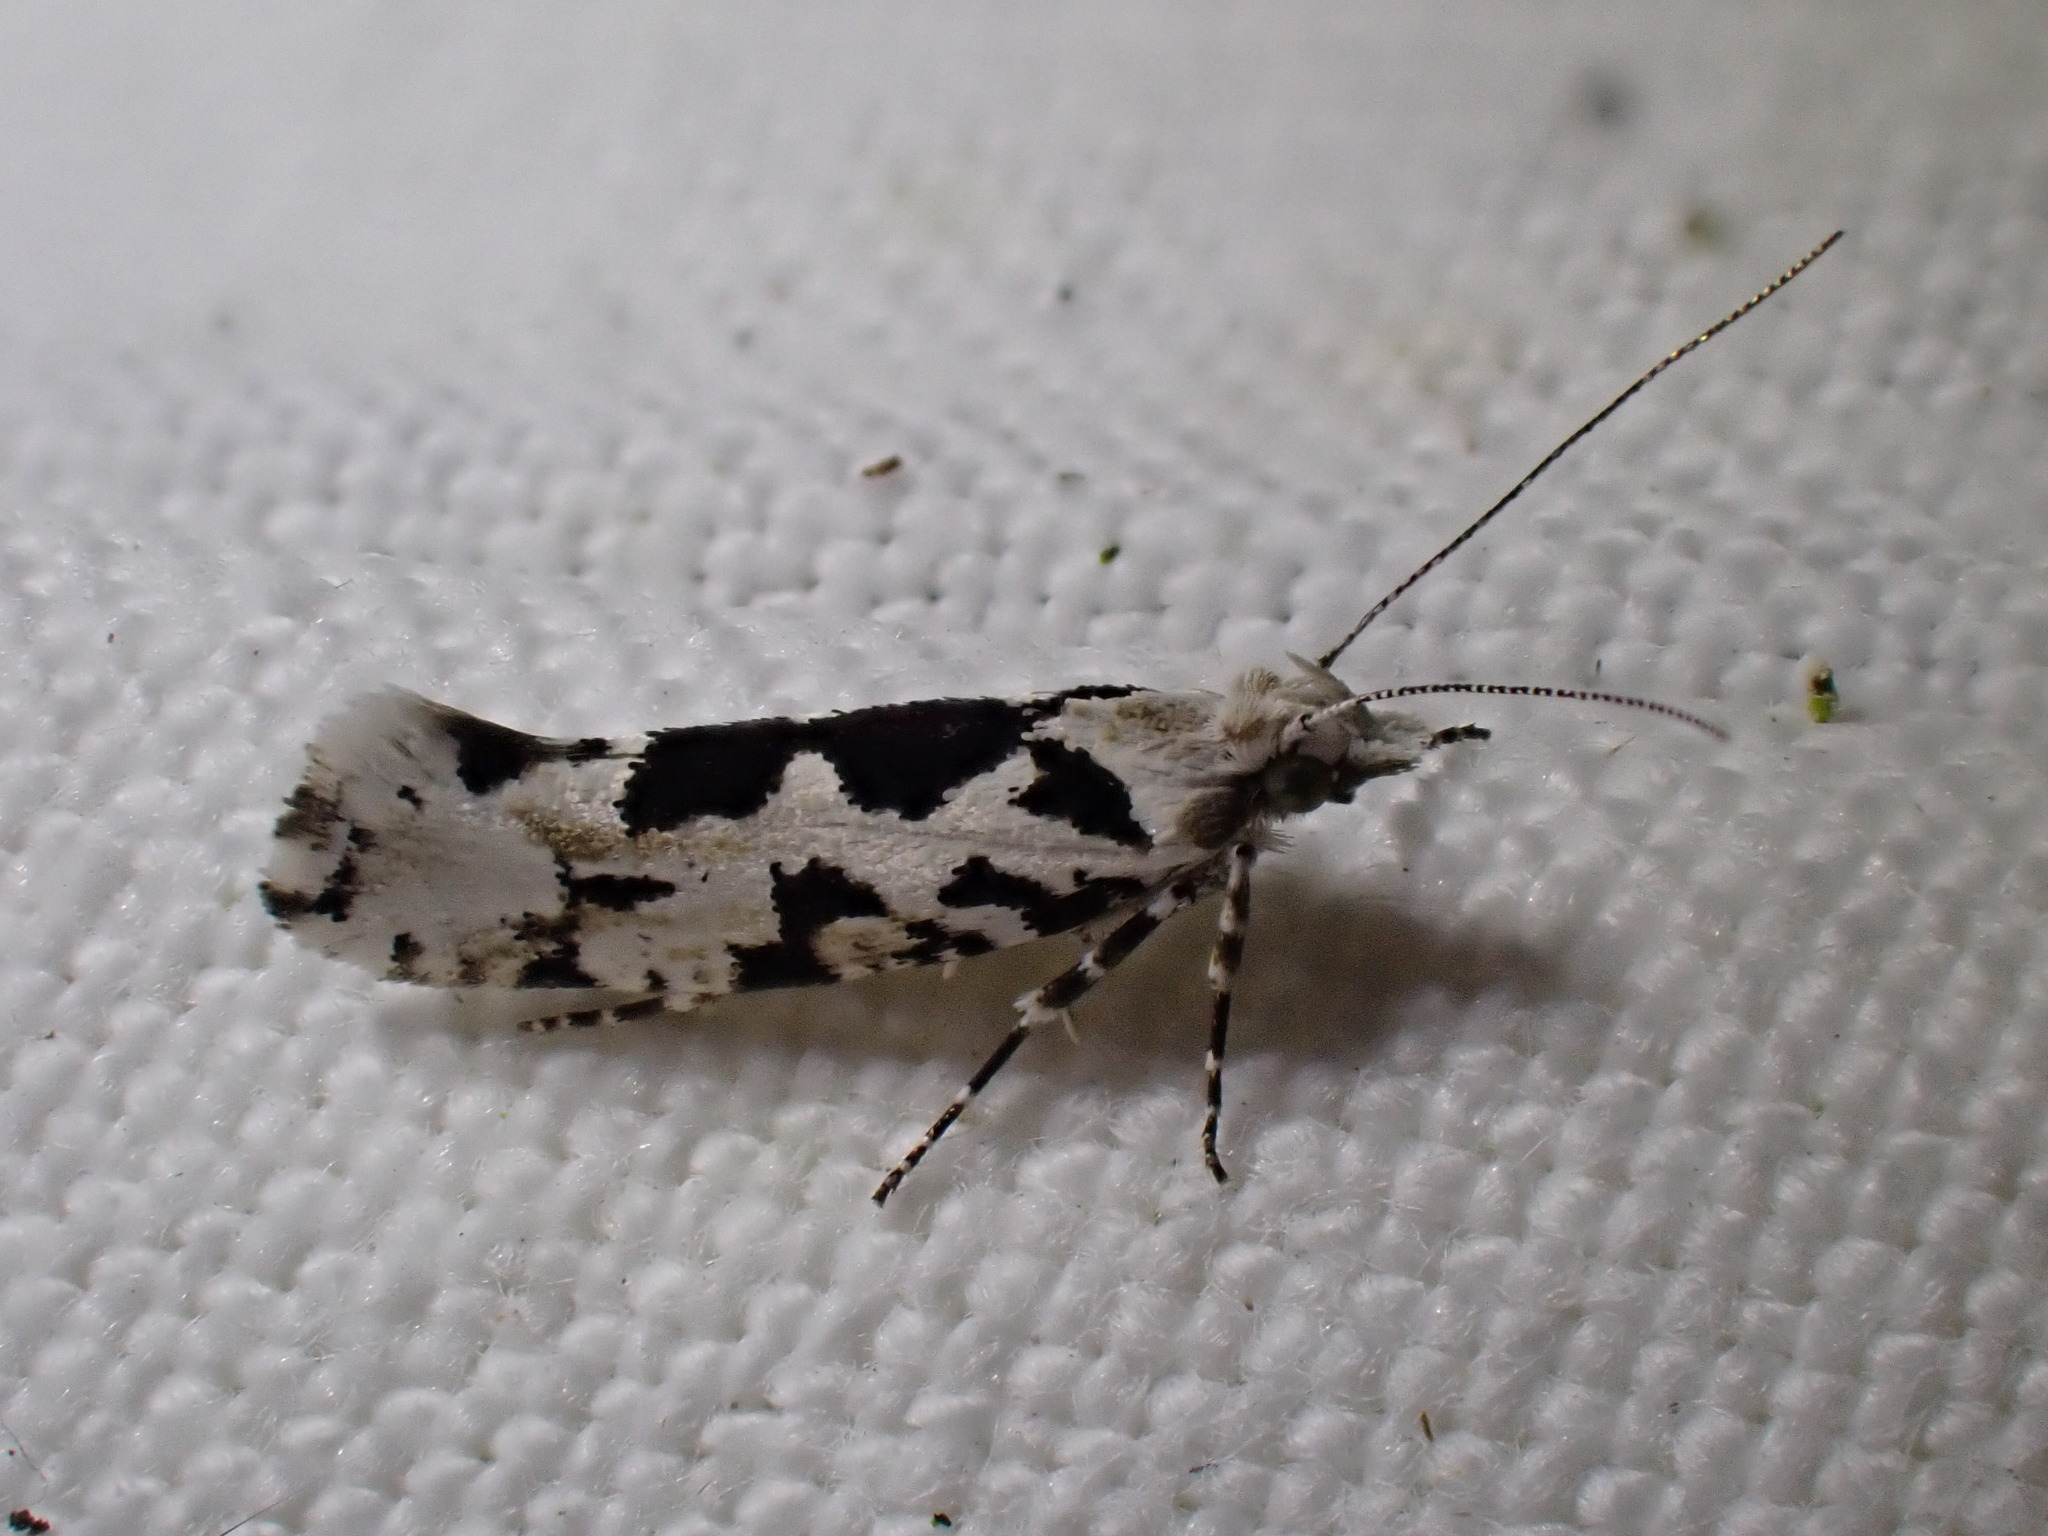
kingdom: Animalia
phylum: Arthropoda
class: Insecta
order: Lepidoptera
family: Plutellidae
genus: Ypsolophus
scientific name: Ypsolophus sequella
